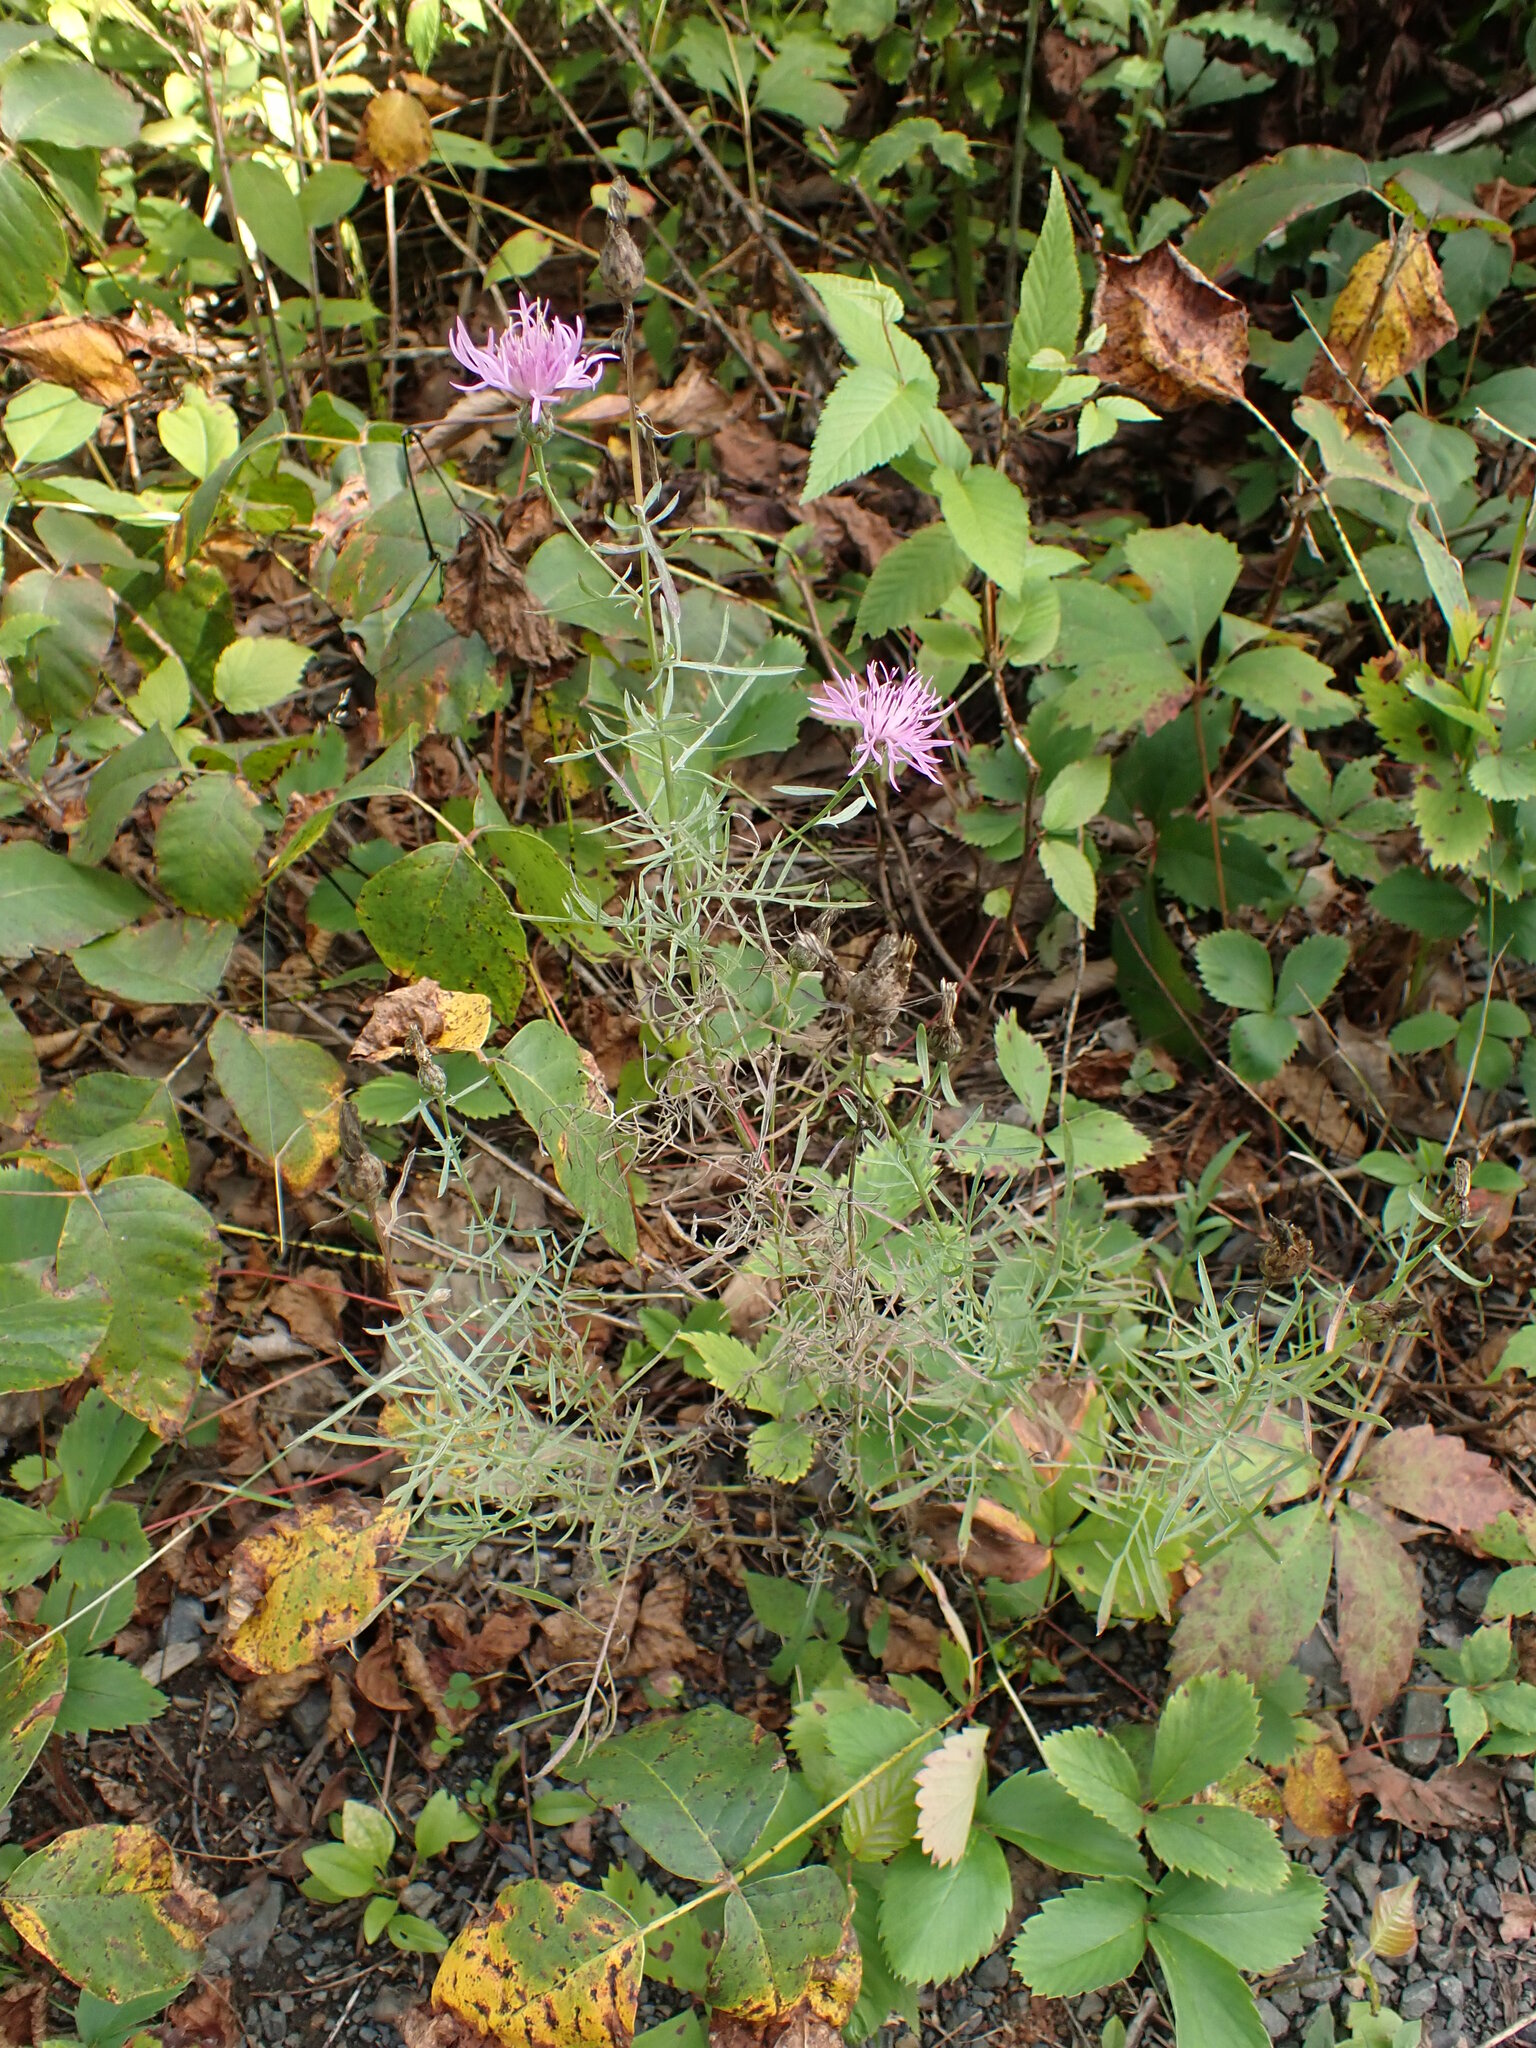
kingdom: Plantae
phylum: Tracheophyta
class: Magnoliopsida
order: Asterales
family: Asteraceae
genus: Centaurea
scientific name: Centaurea stoebe
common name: Spotted knapweed
